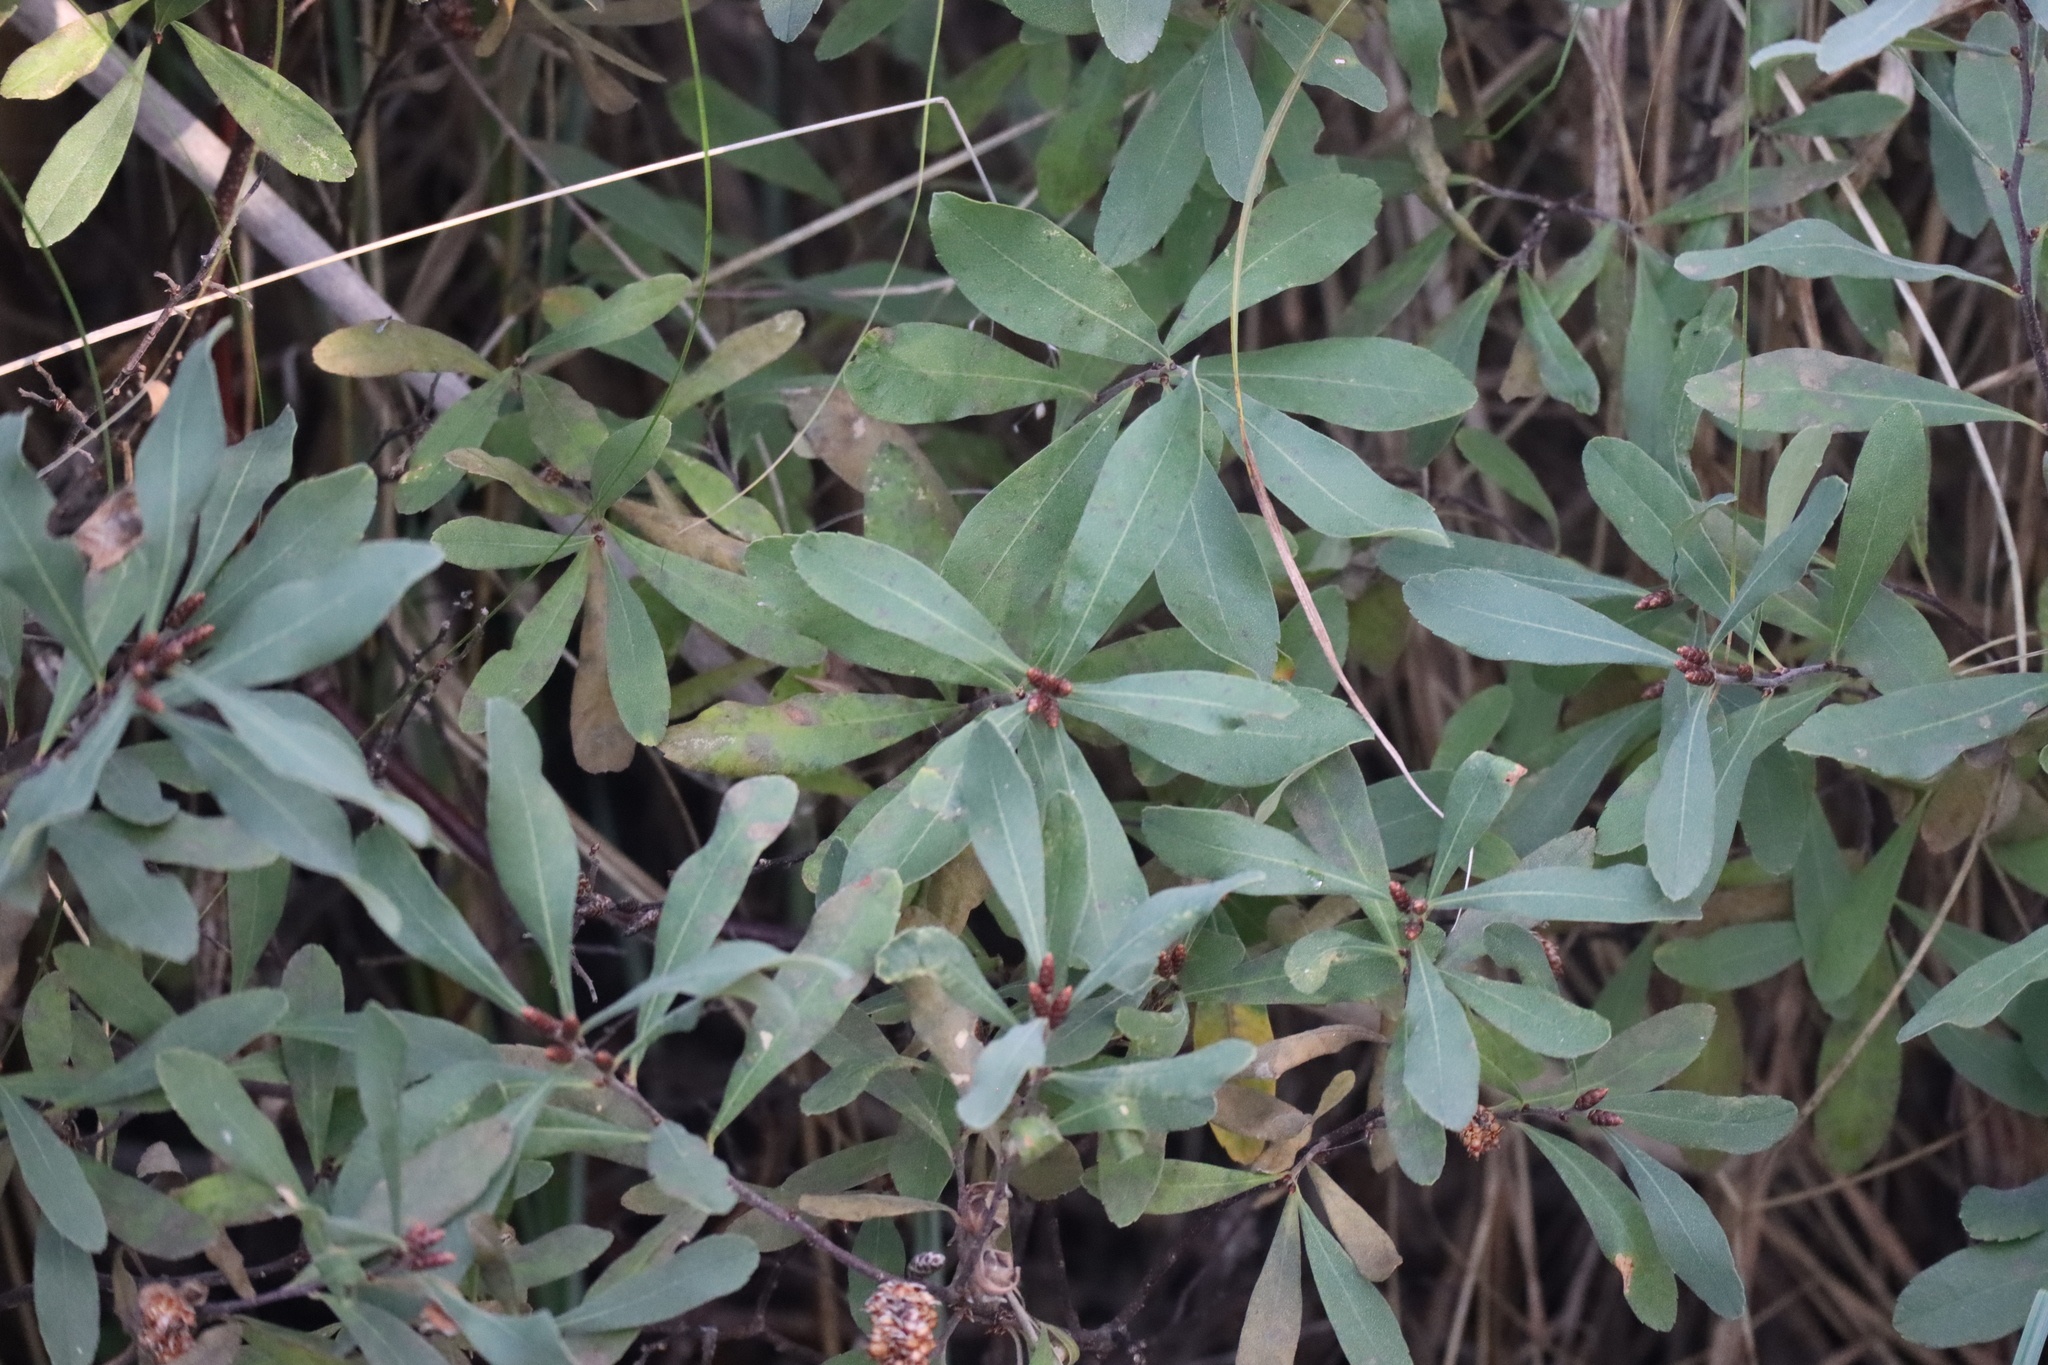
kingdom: Plantae
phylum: Tracheophyta
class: Magnoliopsida
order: Fagales
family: Myricaceae
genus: Myrica
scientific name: Myrica gale
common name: Sweet gale
